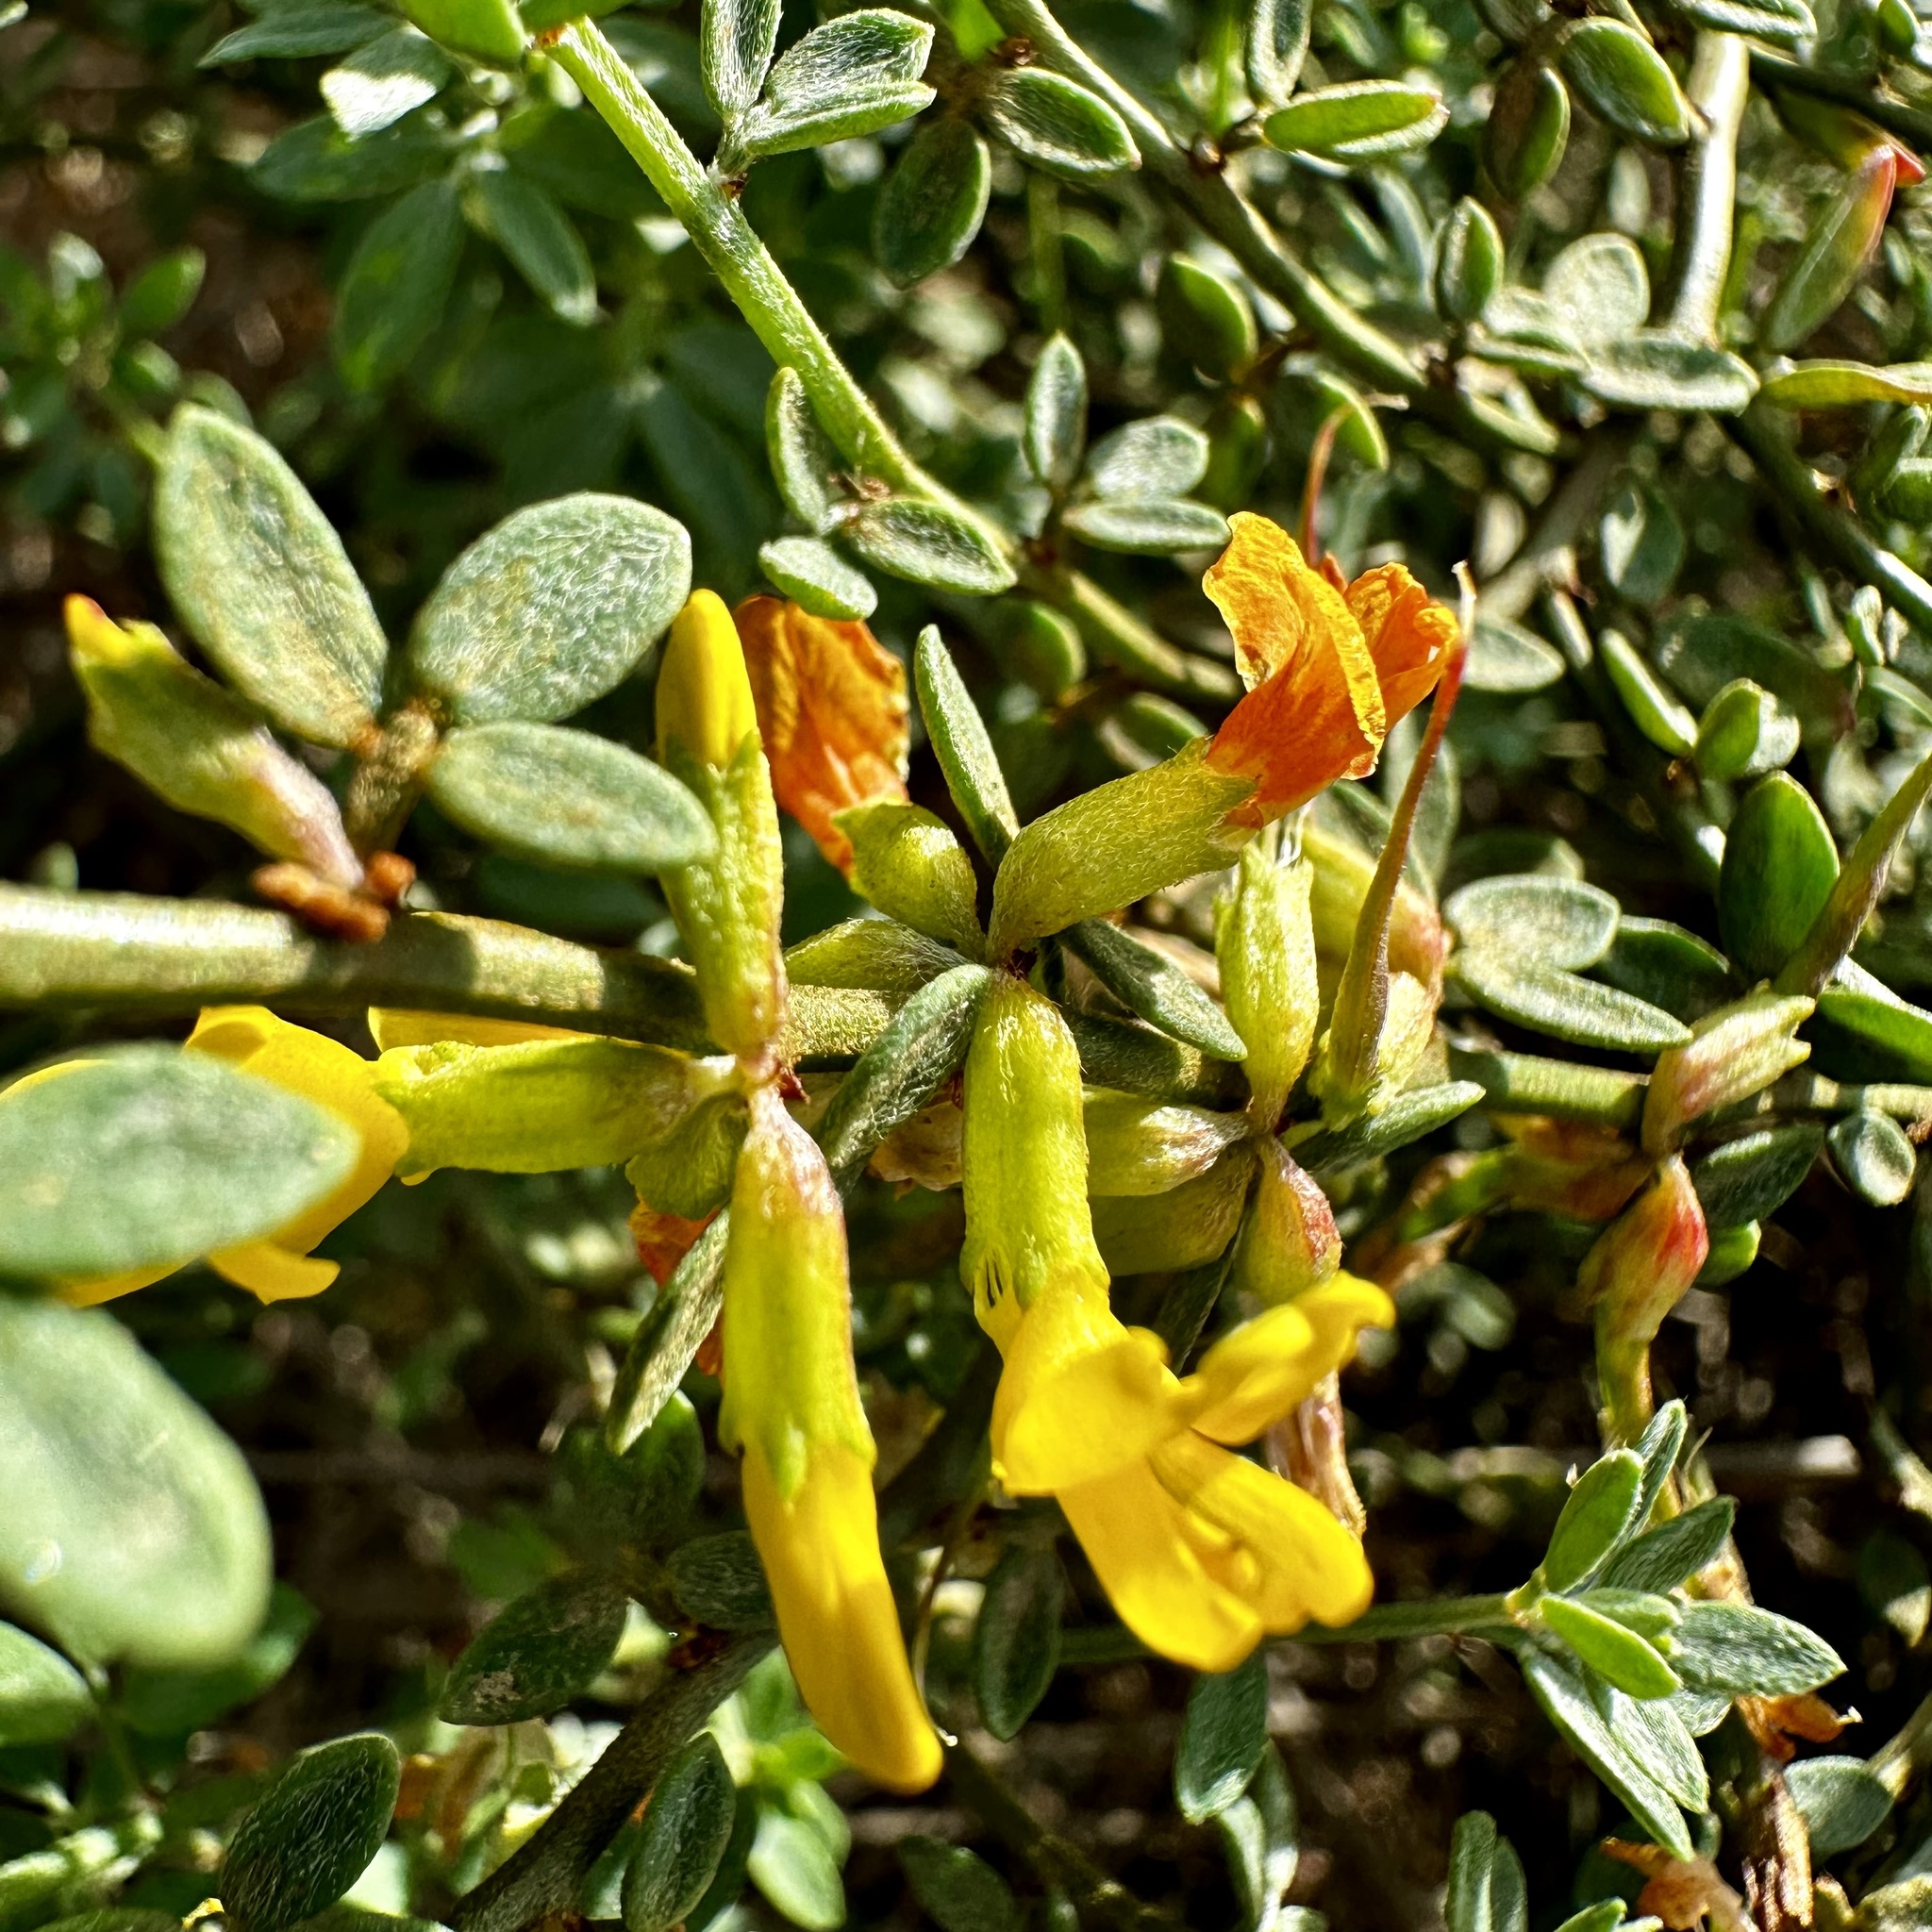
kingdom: Plantae
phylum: Tracheophyta
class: Magnoliopsida
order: Fabales
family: Fabaceae
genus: Acmispon
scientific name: Acmispon glaber
